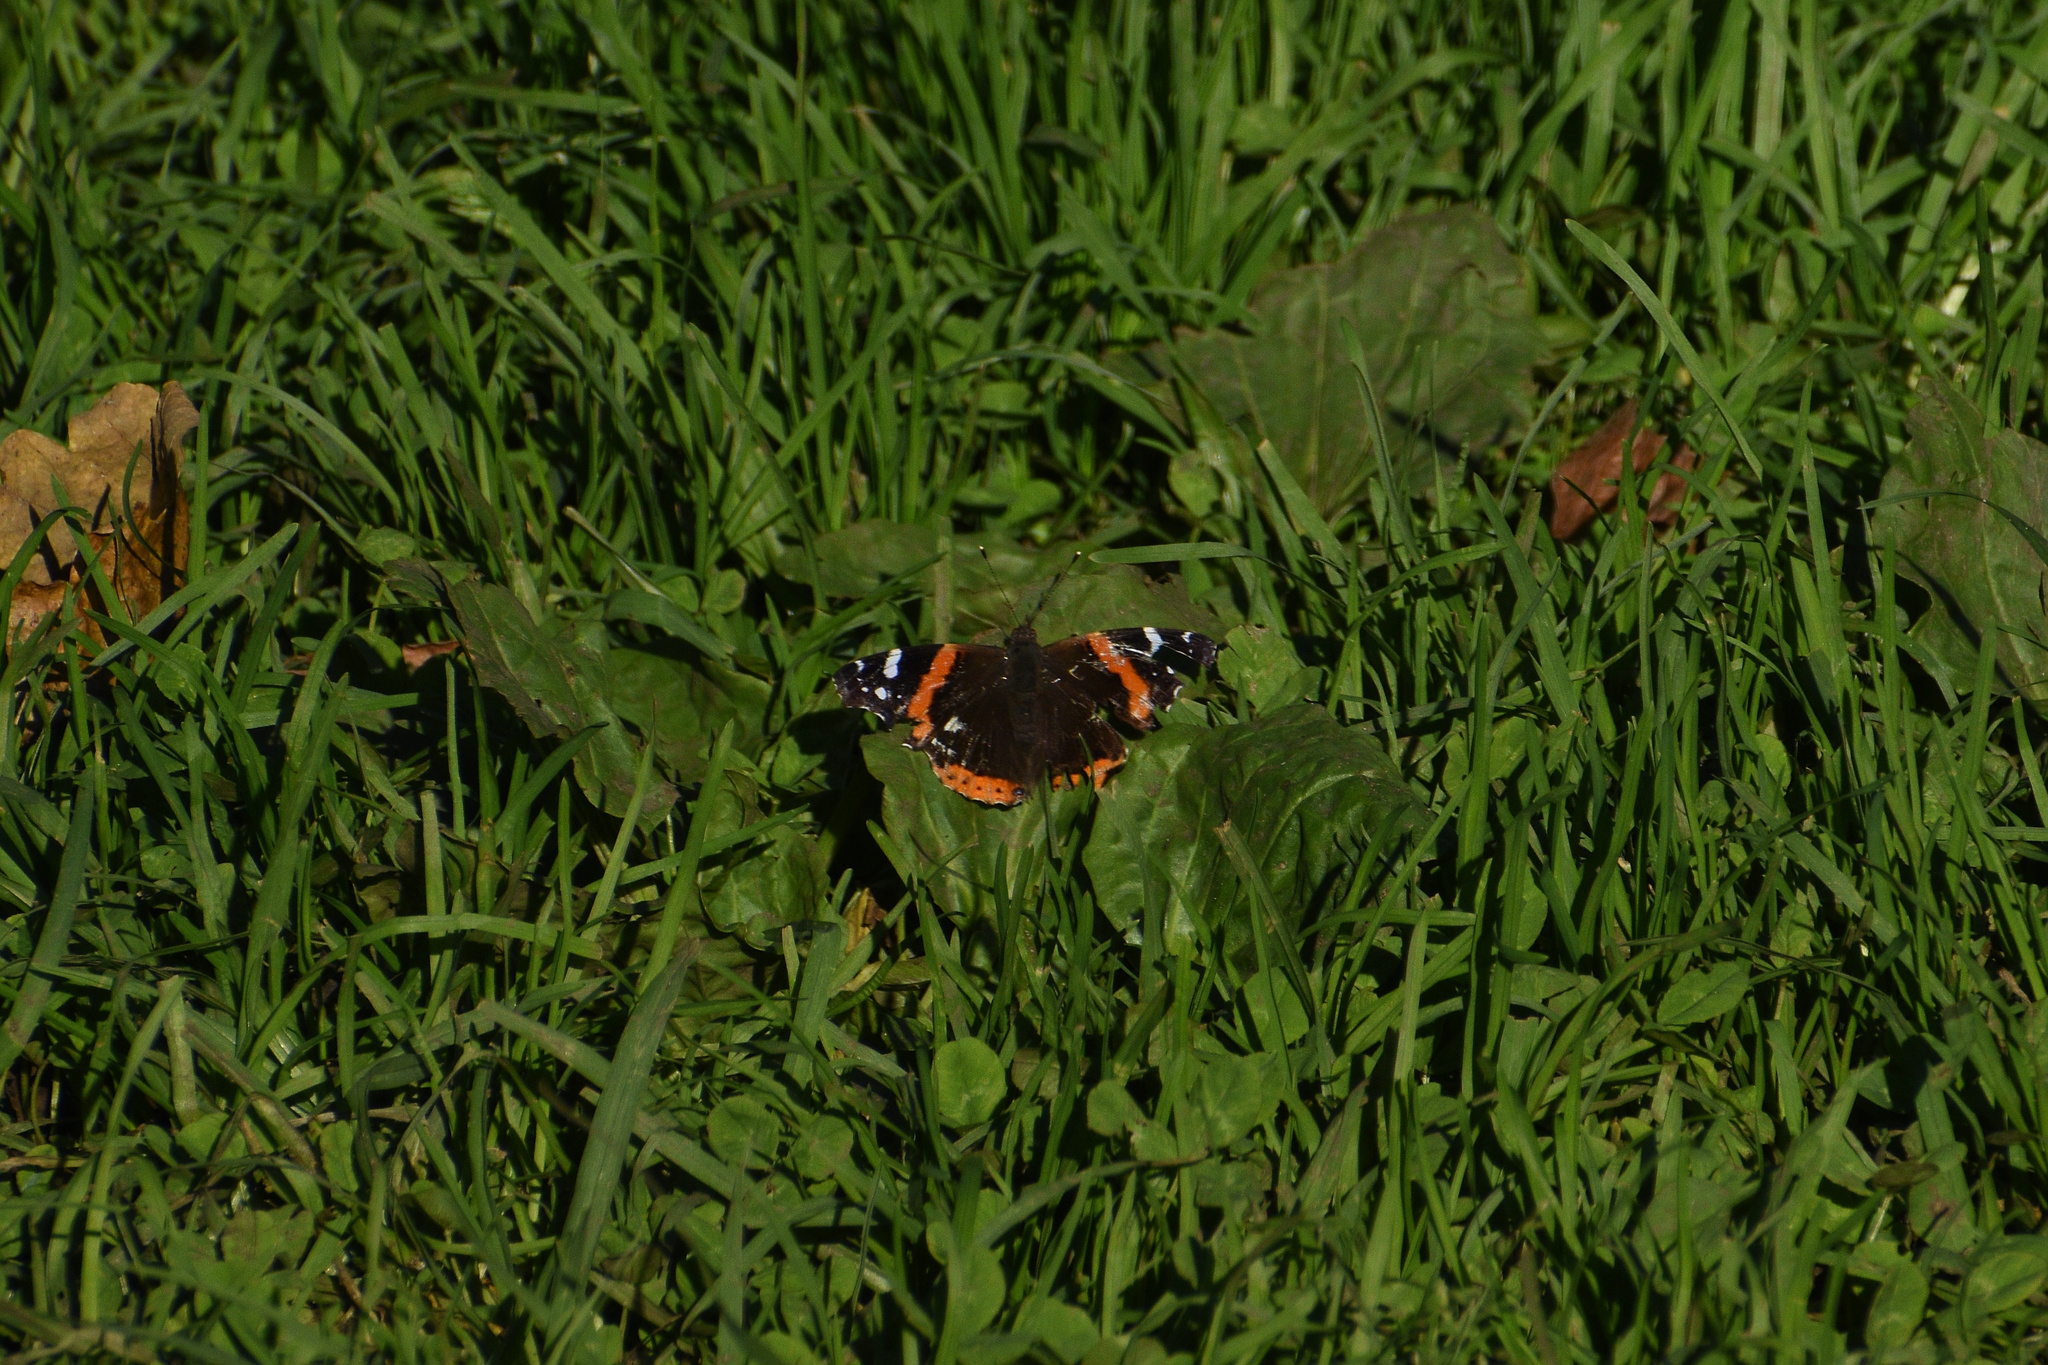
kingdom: Animalia
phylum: Arthropoda
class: Insecta
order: Lepidoptera
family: Nymphalidae
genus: Vanessa
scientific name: Vanessa atalanta
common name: Red admiral
